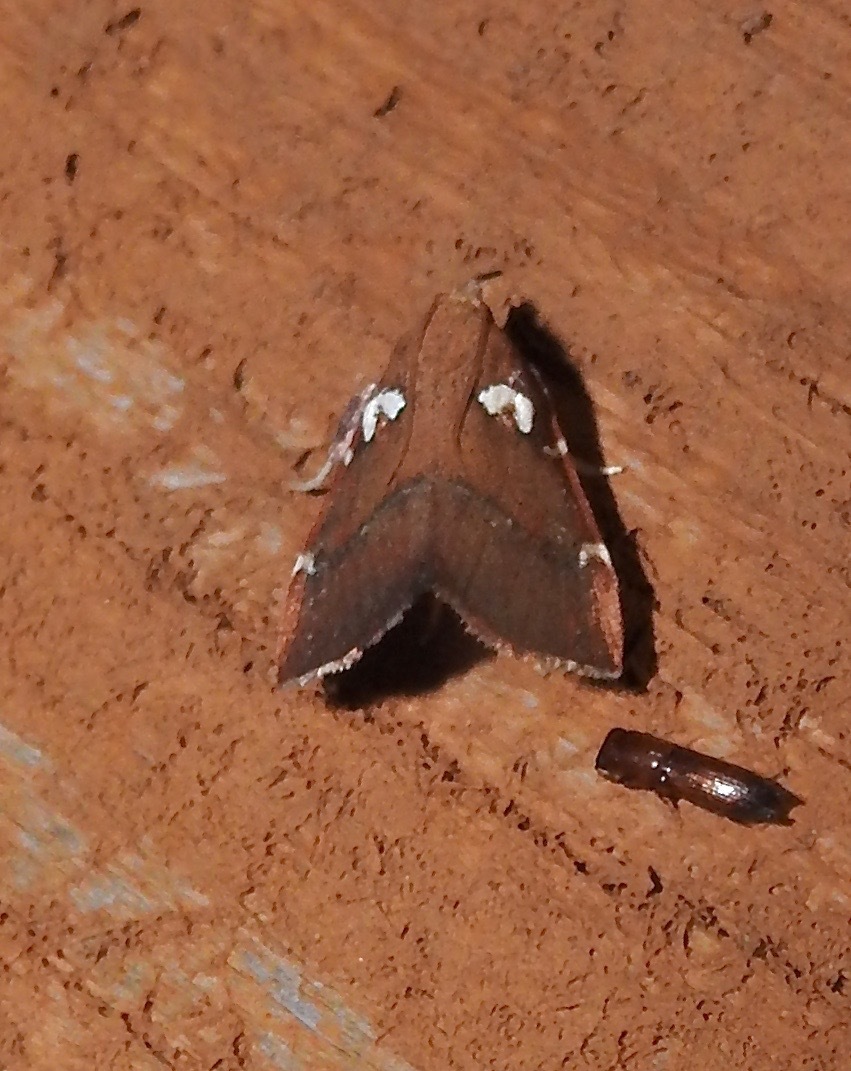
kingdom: Animalia
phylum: Arthropoda
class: Insecta
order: Lepidoptera
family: Pyralidae
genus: Lepidomys
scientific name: Lepidomys irrenosa
